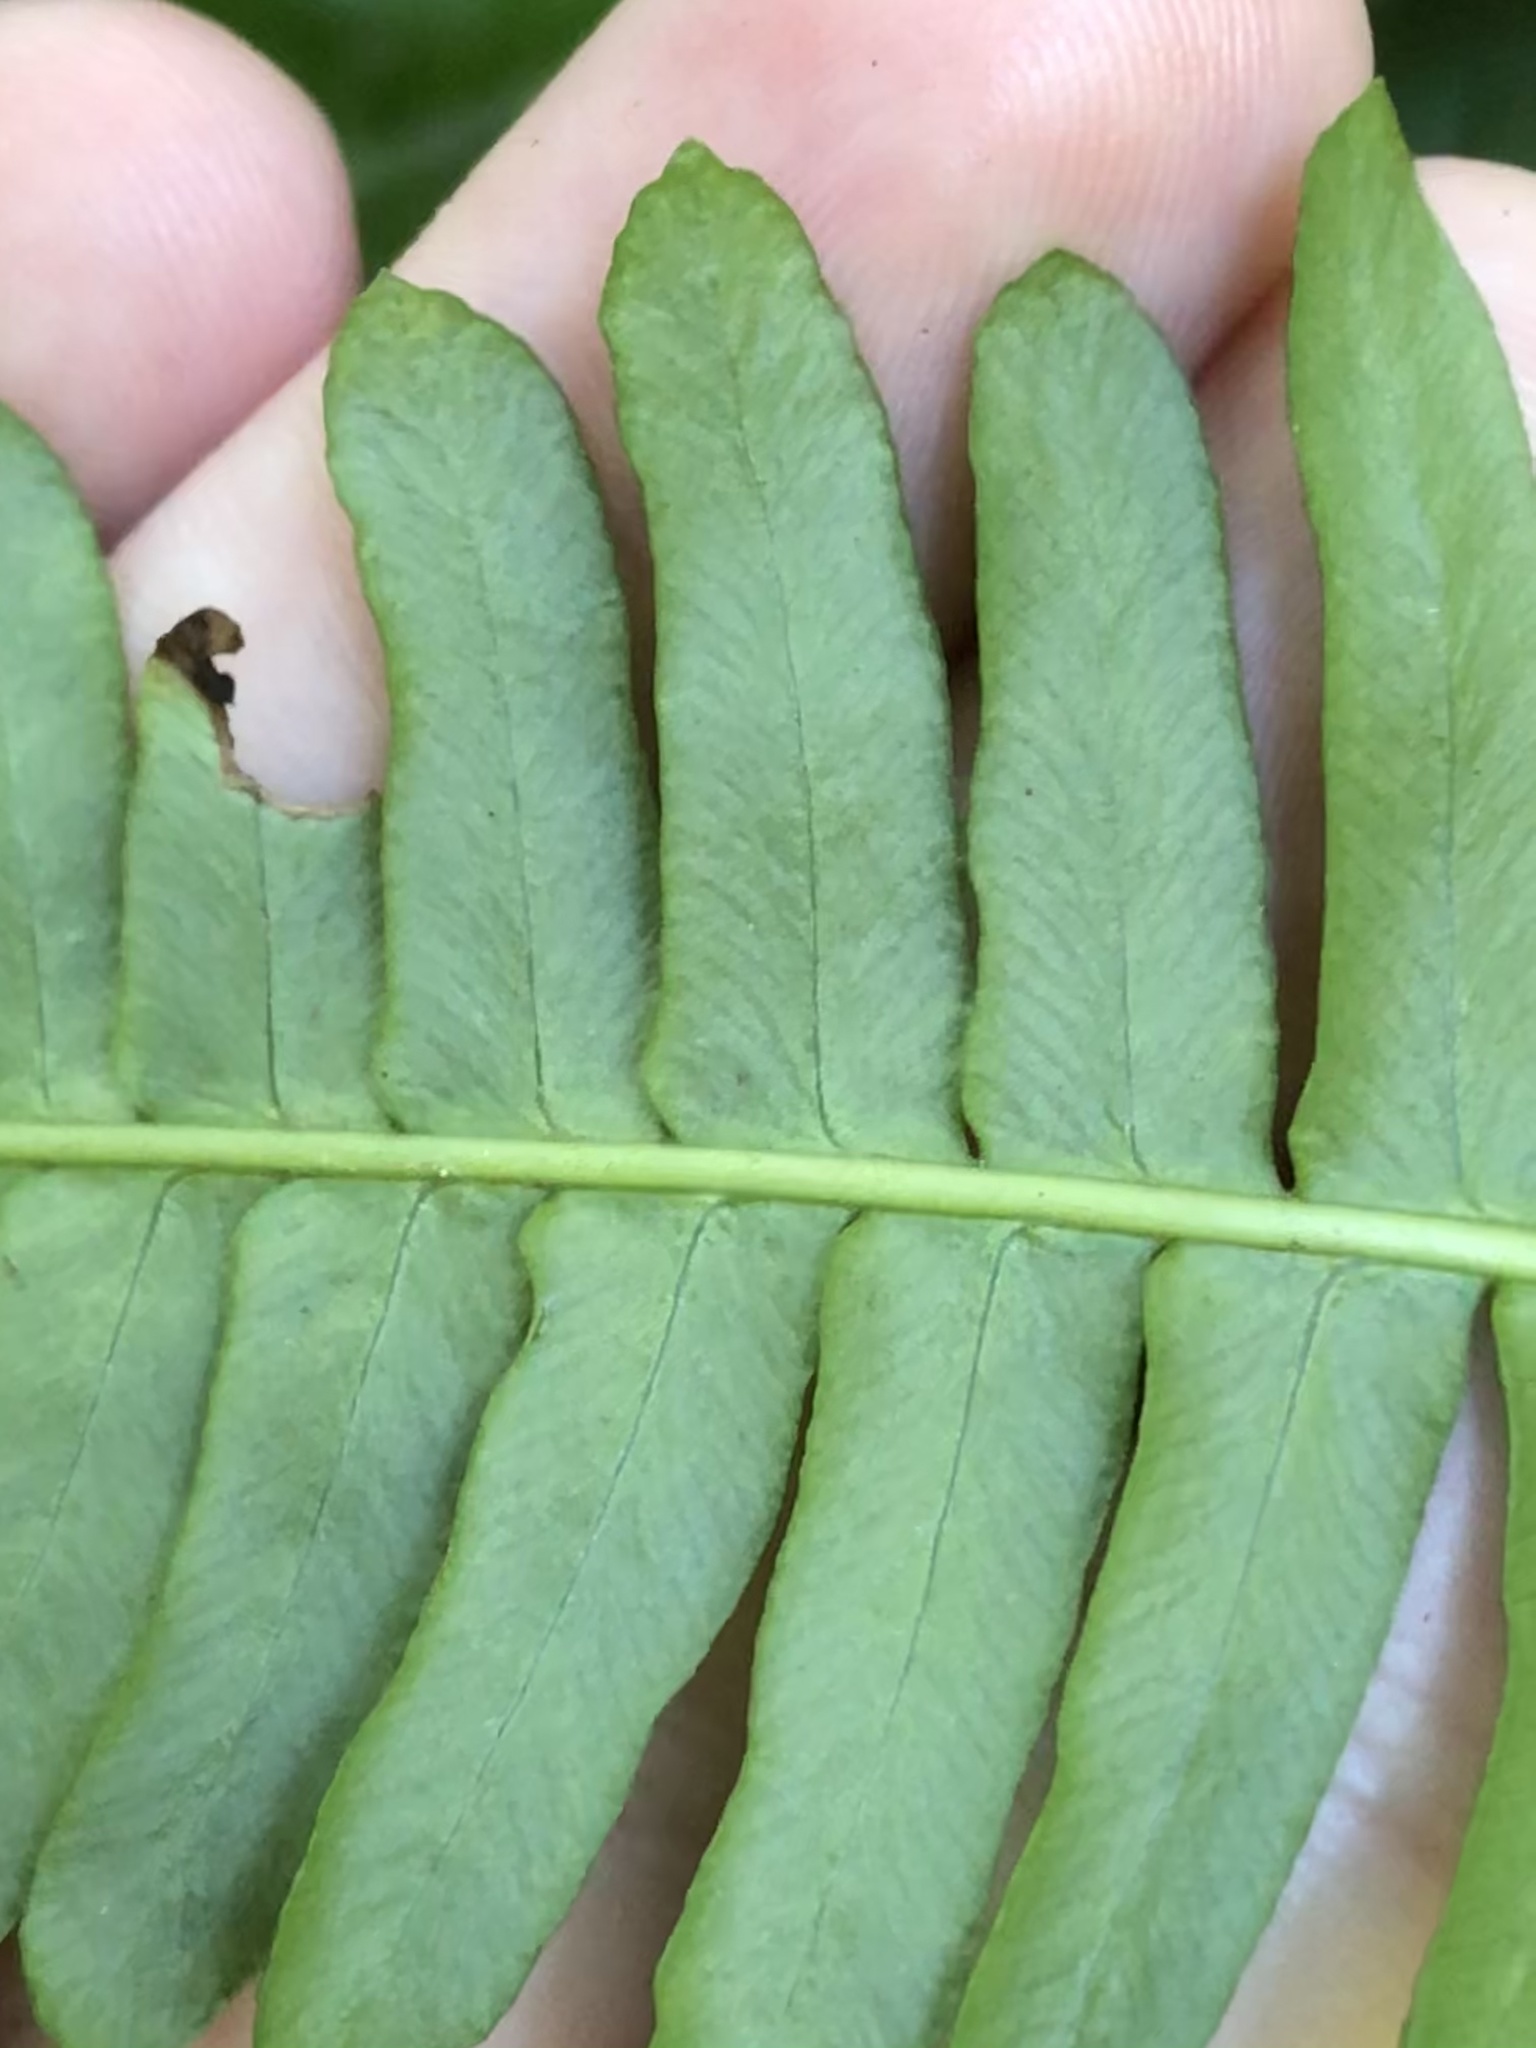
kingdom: Plantae
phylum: Tracheophyta
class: Polypodiopsida
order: Polypodiales
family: Blechnaceae
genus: Struthiopteris
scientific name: Struthiopteris spicant
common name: Deer fern
